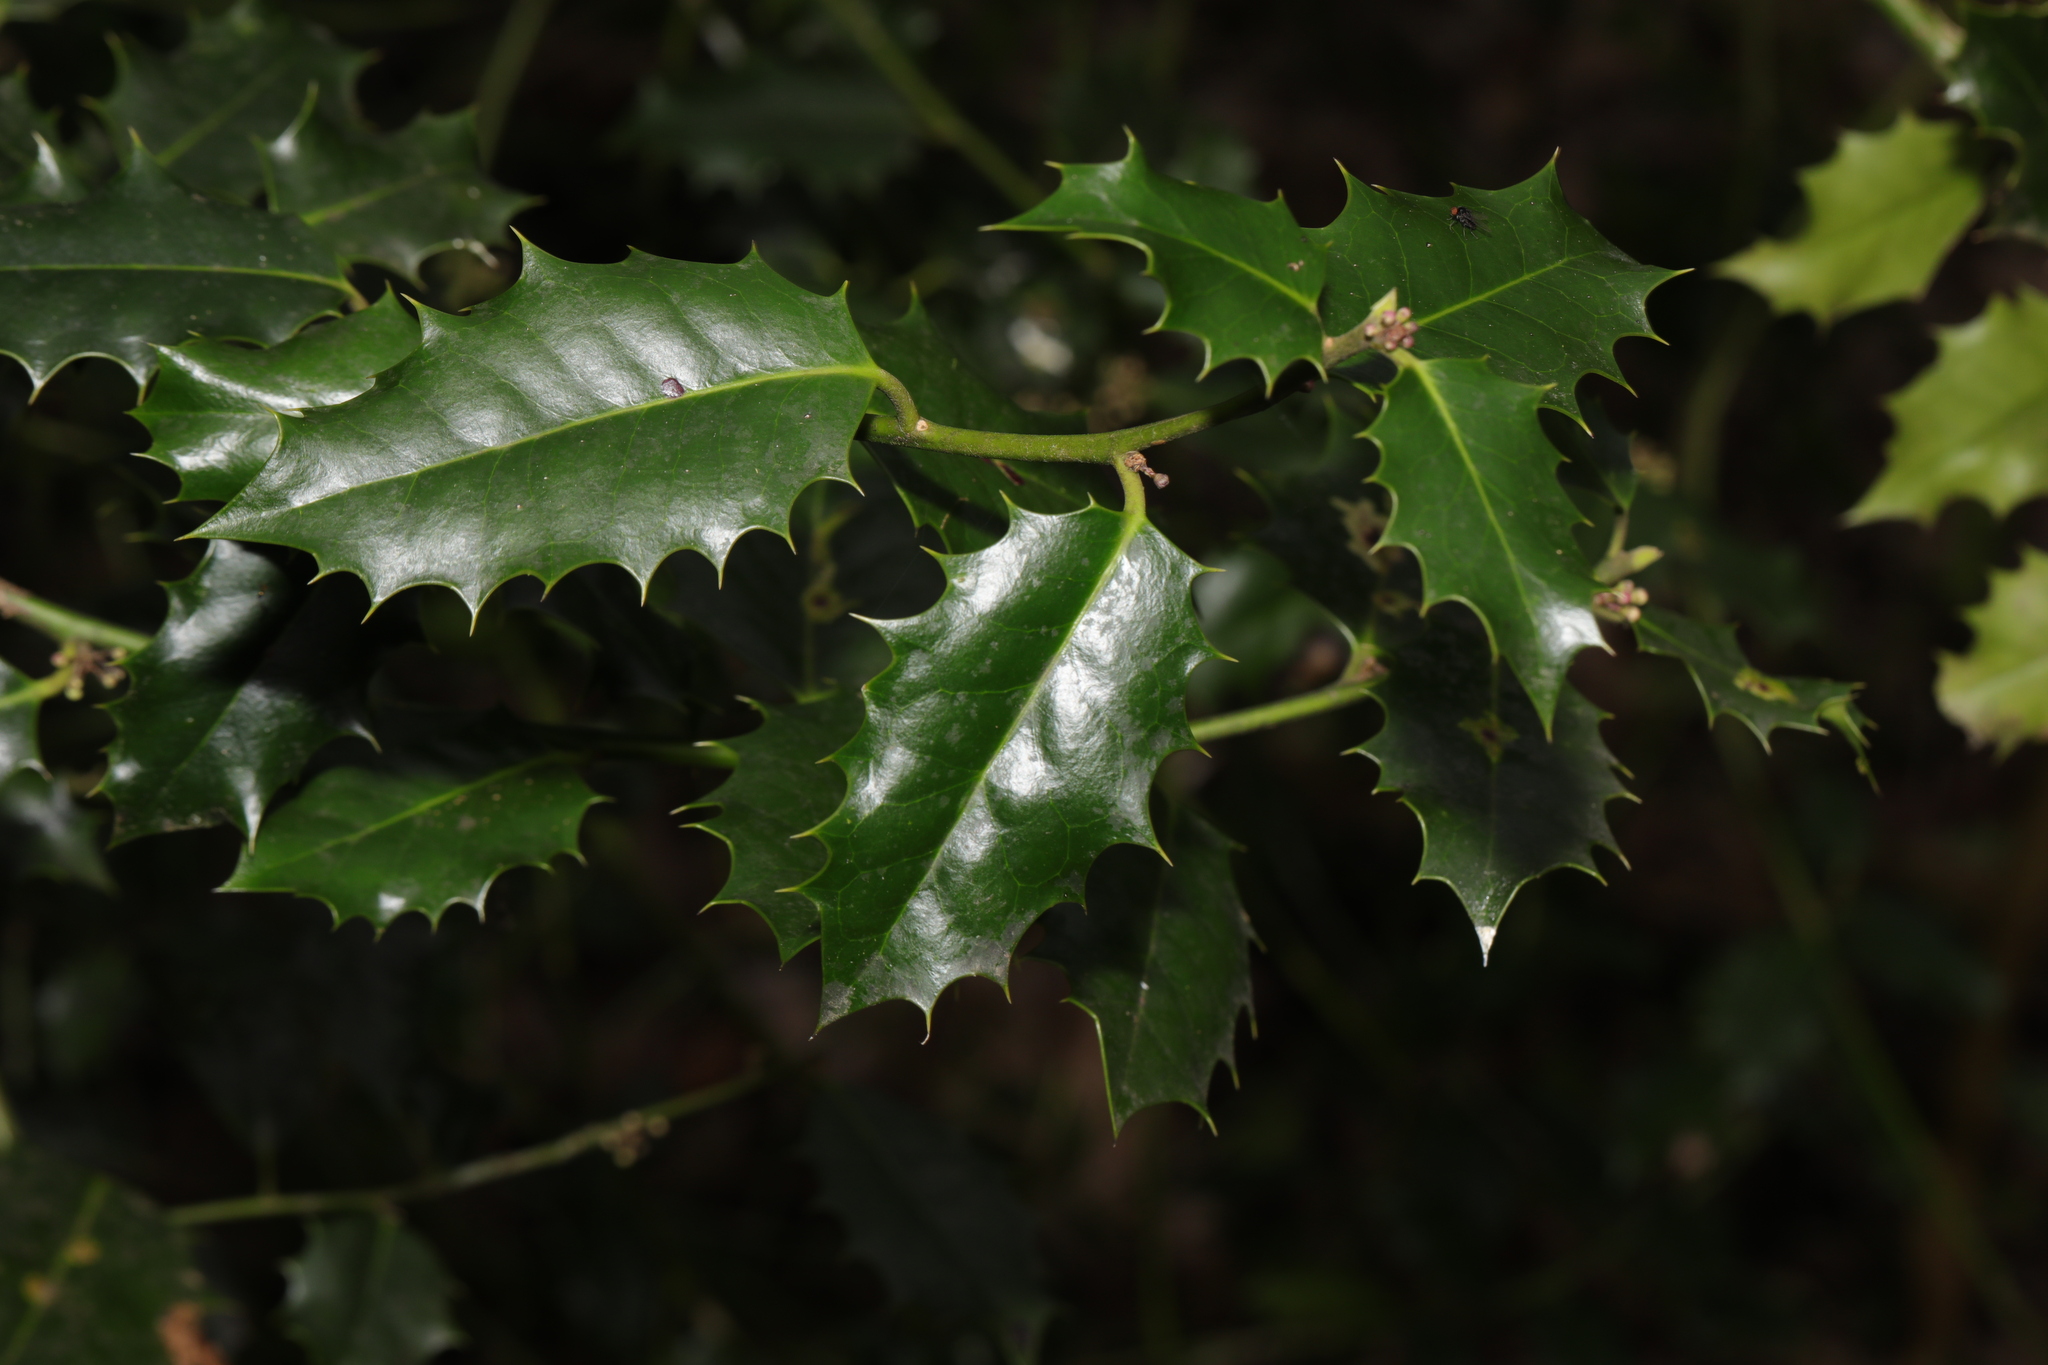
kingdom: Plantae
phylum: Tracheophyta
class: Magnoliopsida
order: Aquifoliales
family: Aquifoliaceae
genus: Ilex
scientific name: Ilex aquifolium
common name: English holly
